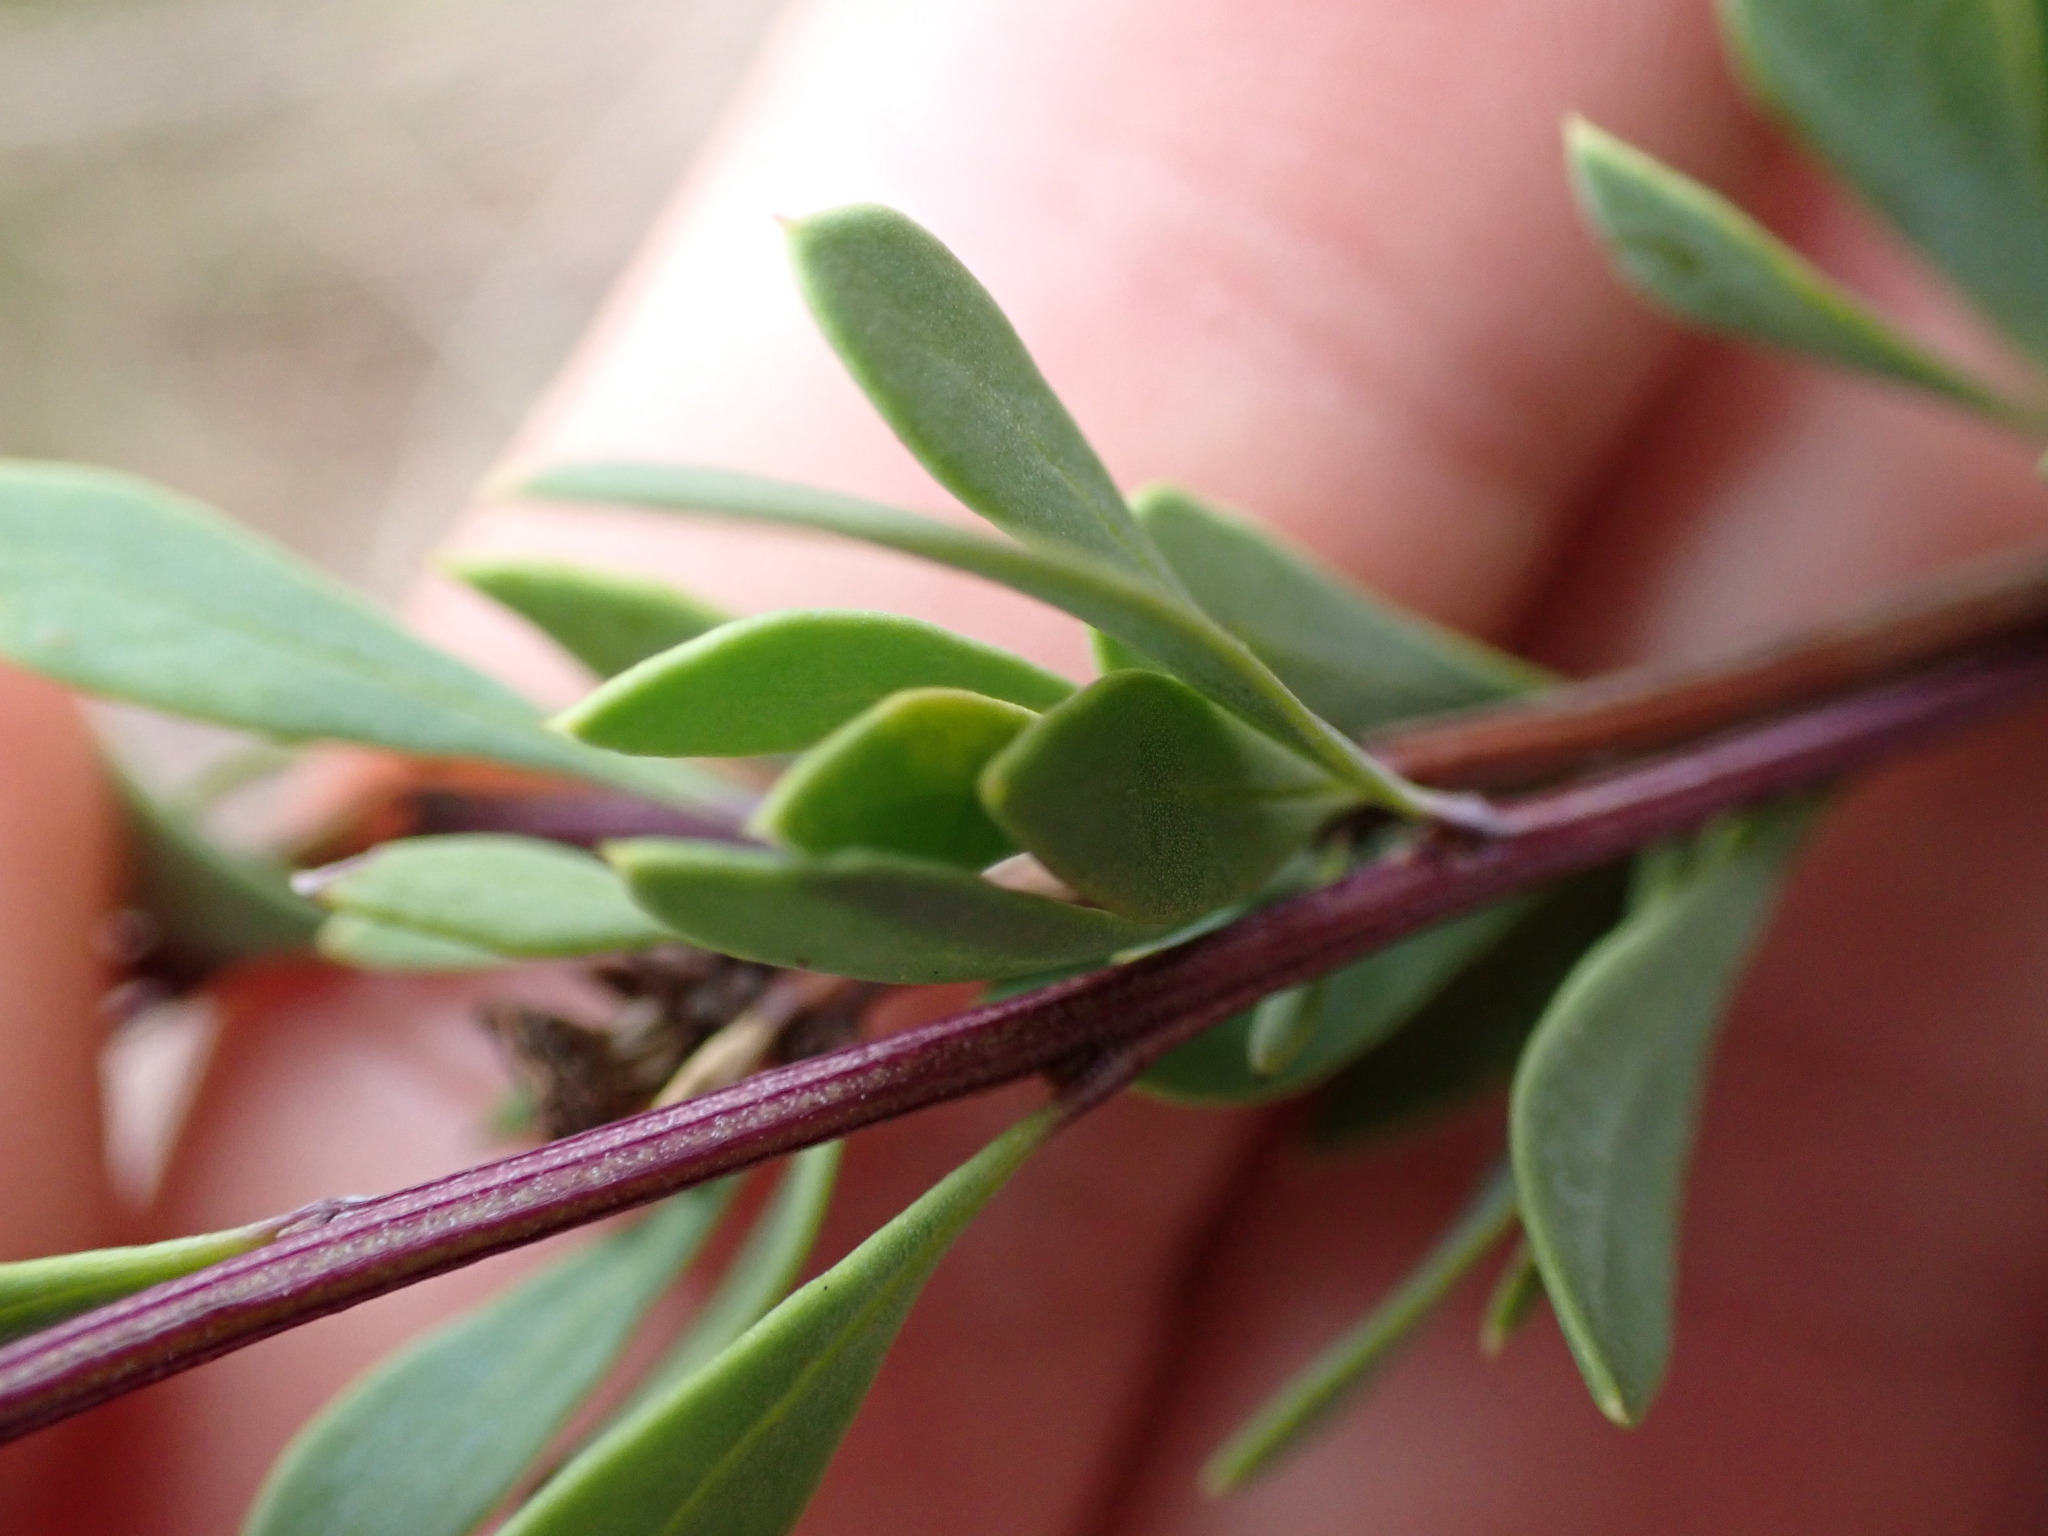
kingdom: Plantae
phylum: Tracheophyta
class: Magnoliopsida
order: Lamiales
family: Plantaginaceae
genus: Globularia
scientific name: Globularia alypum
